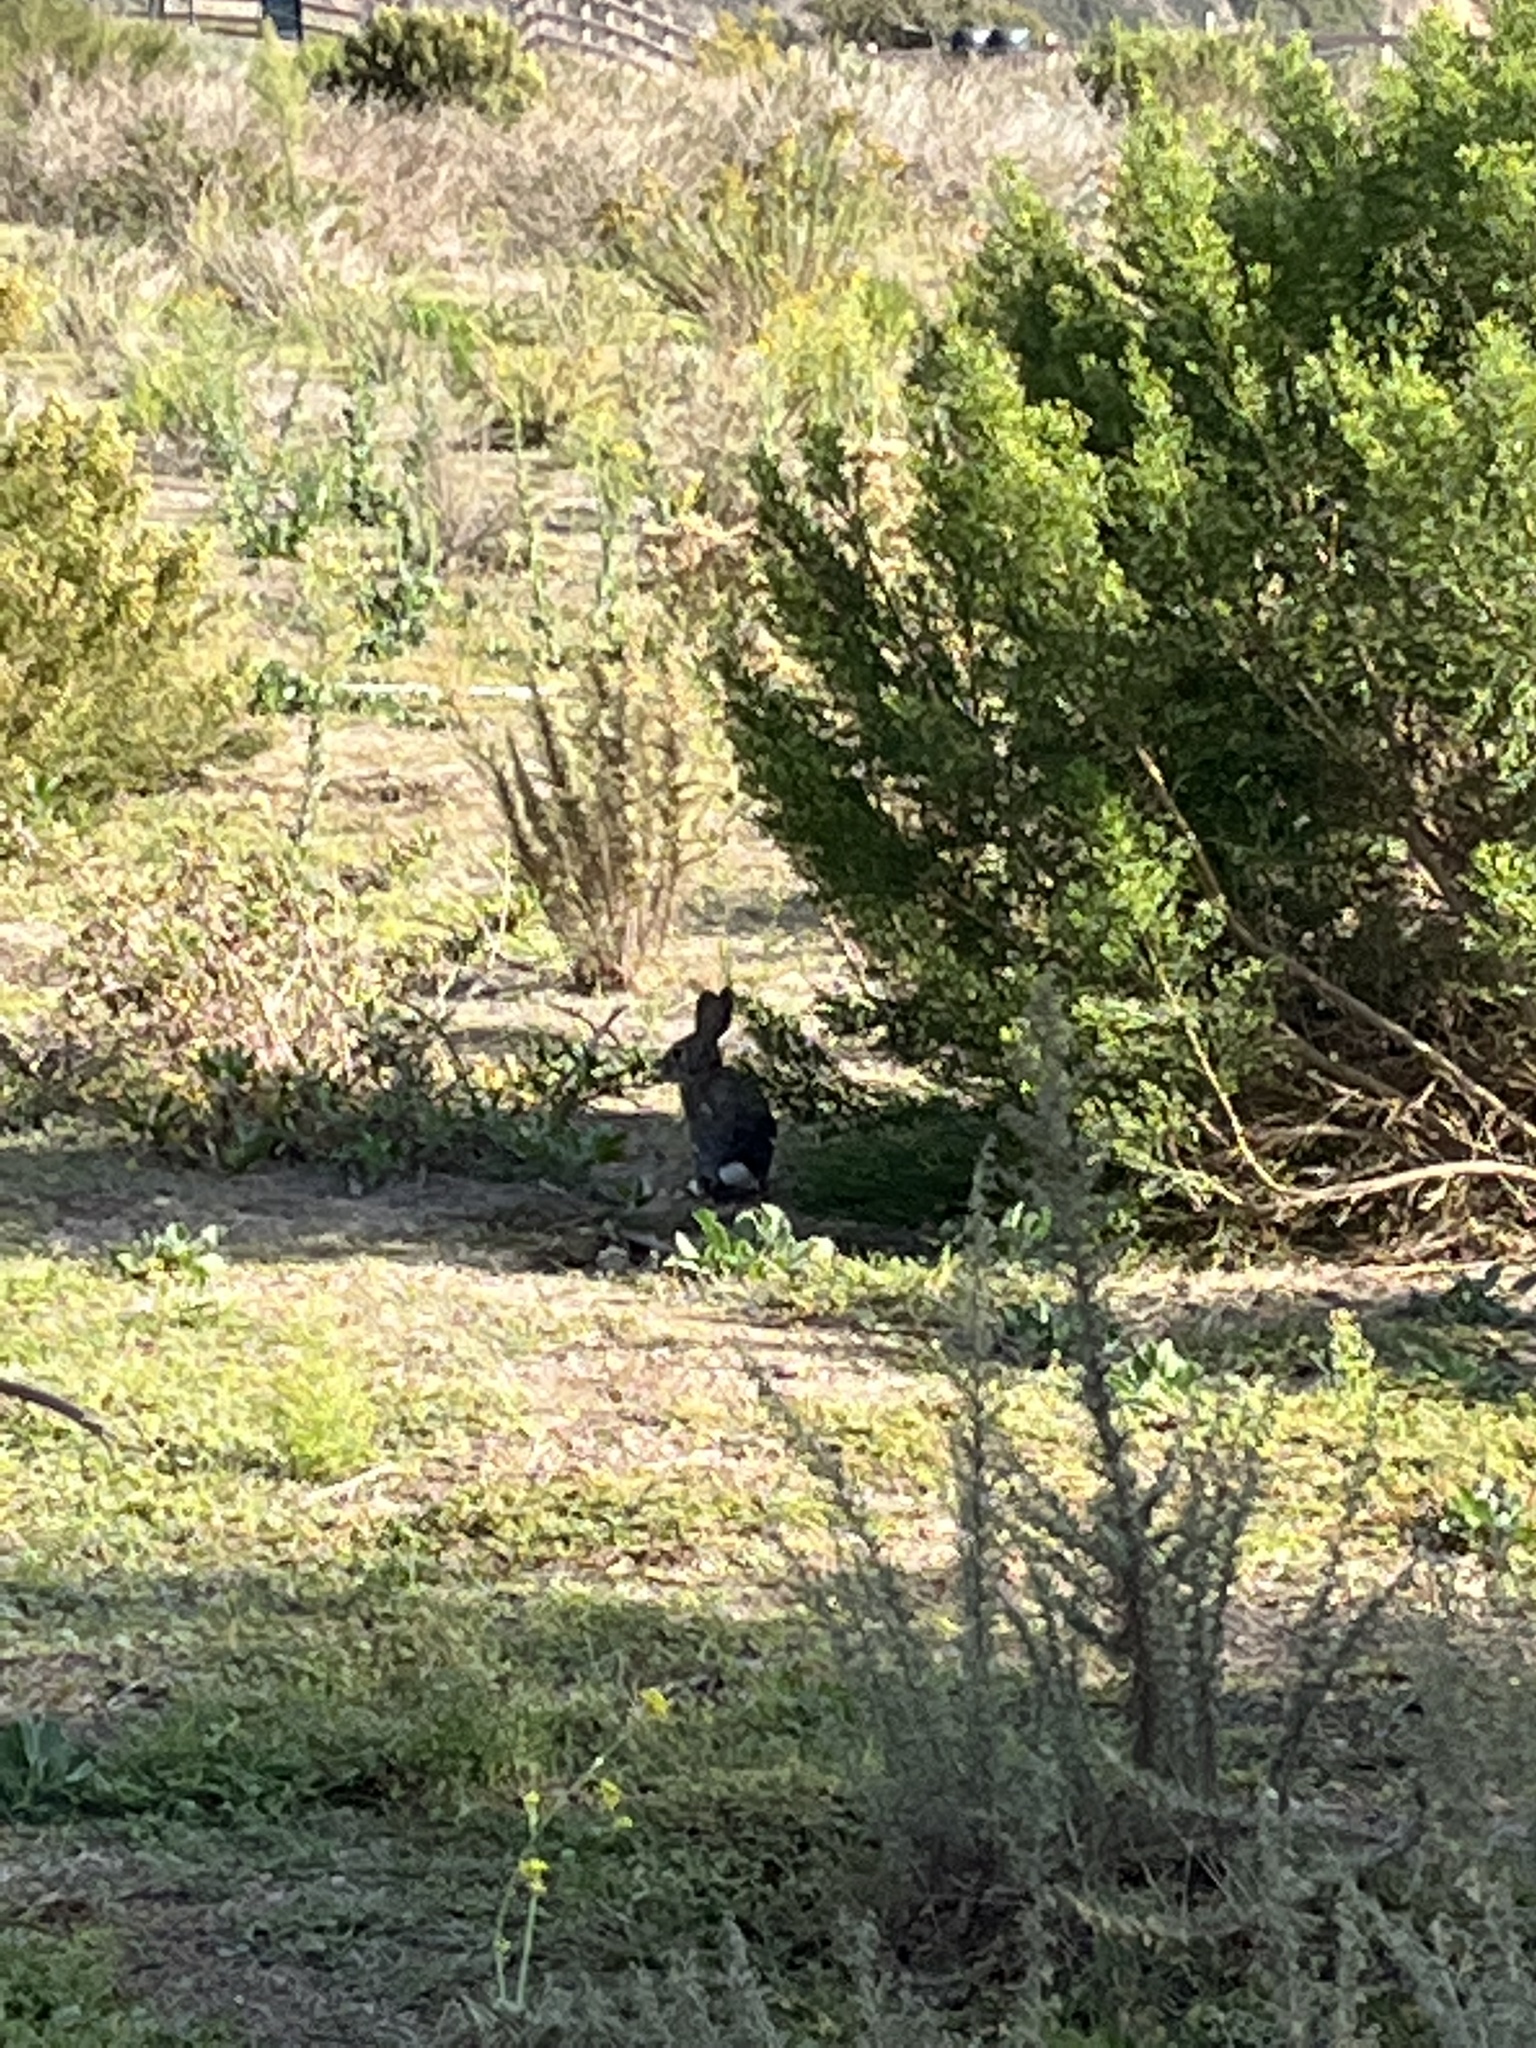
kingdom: Animalia
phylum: Chordata
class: Mammalia
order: Lagomorpha
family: Leporidae
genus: Sylvilagus
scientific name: Sylvilagus audubonii
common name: Desert cottontail
